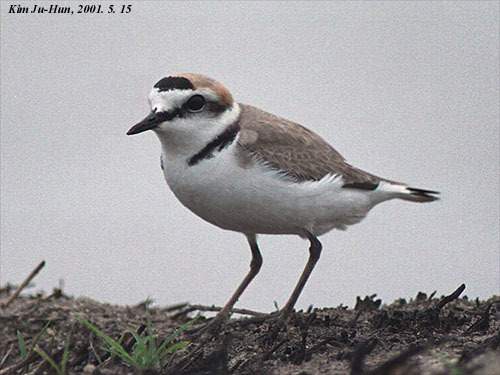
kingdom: Animalia
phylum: Chordata
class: Aves
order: Charadriiformes
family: Charadriidae
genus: Charadrius
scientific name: Charadrius alexandrinus
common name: Kentish plover
